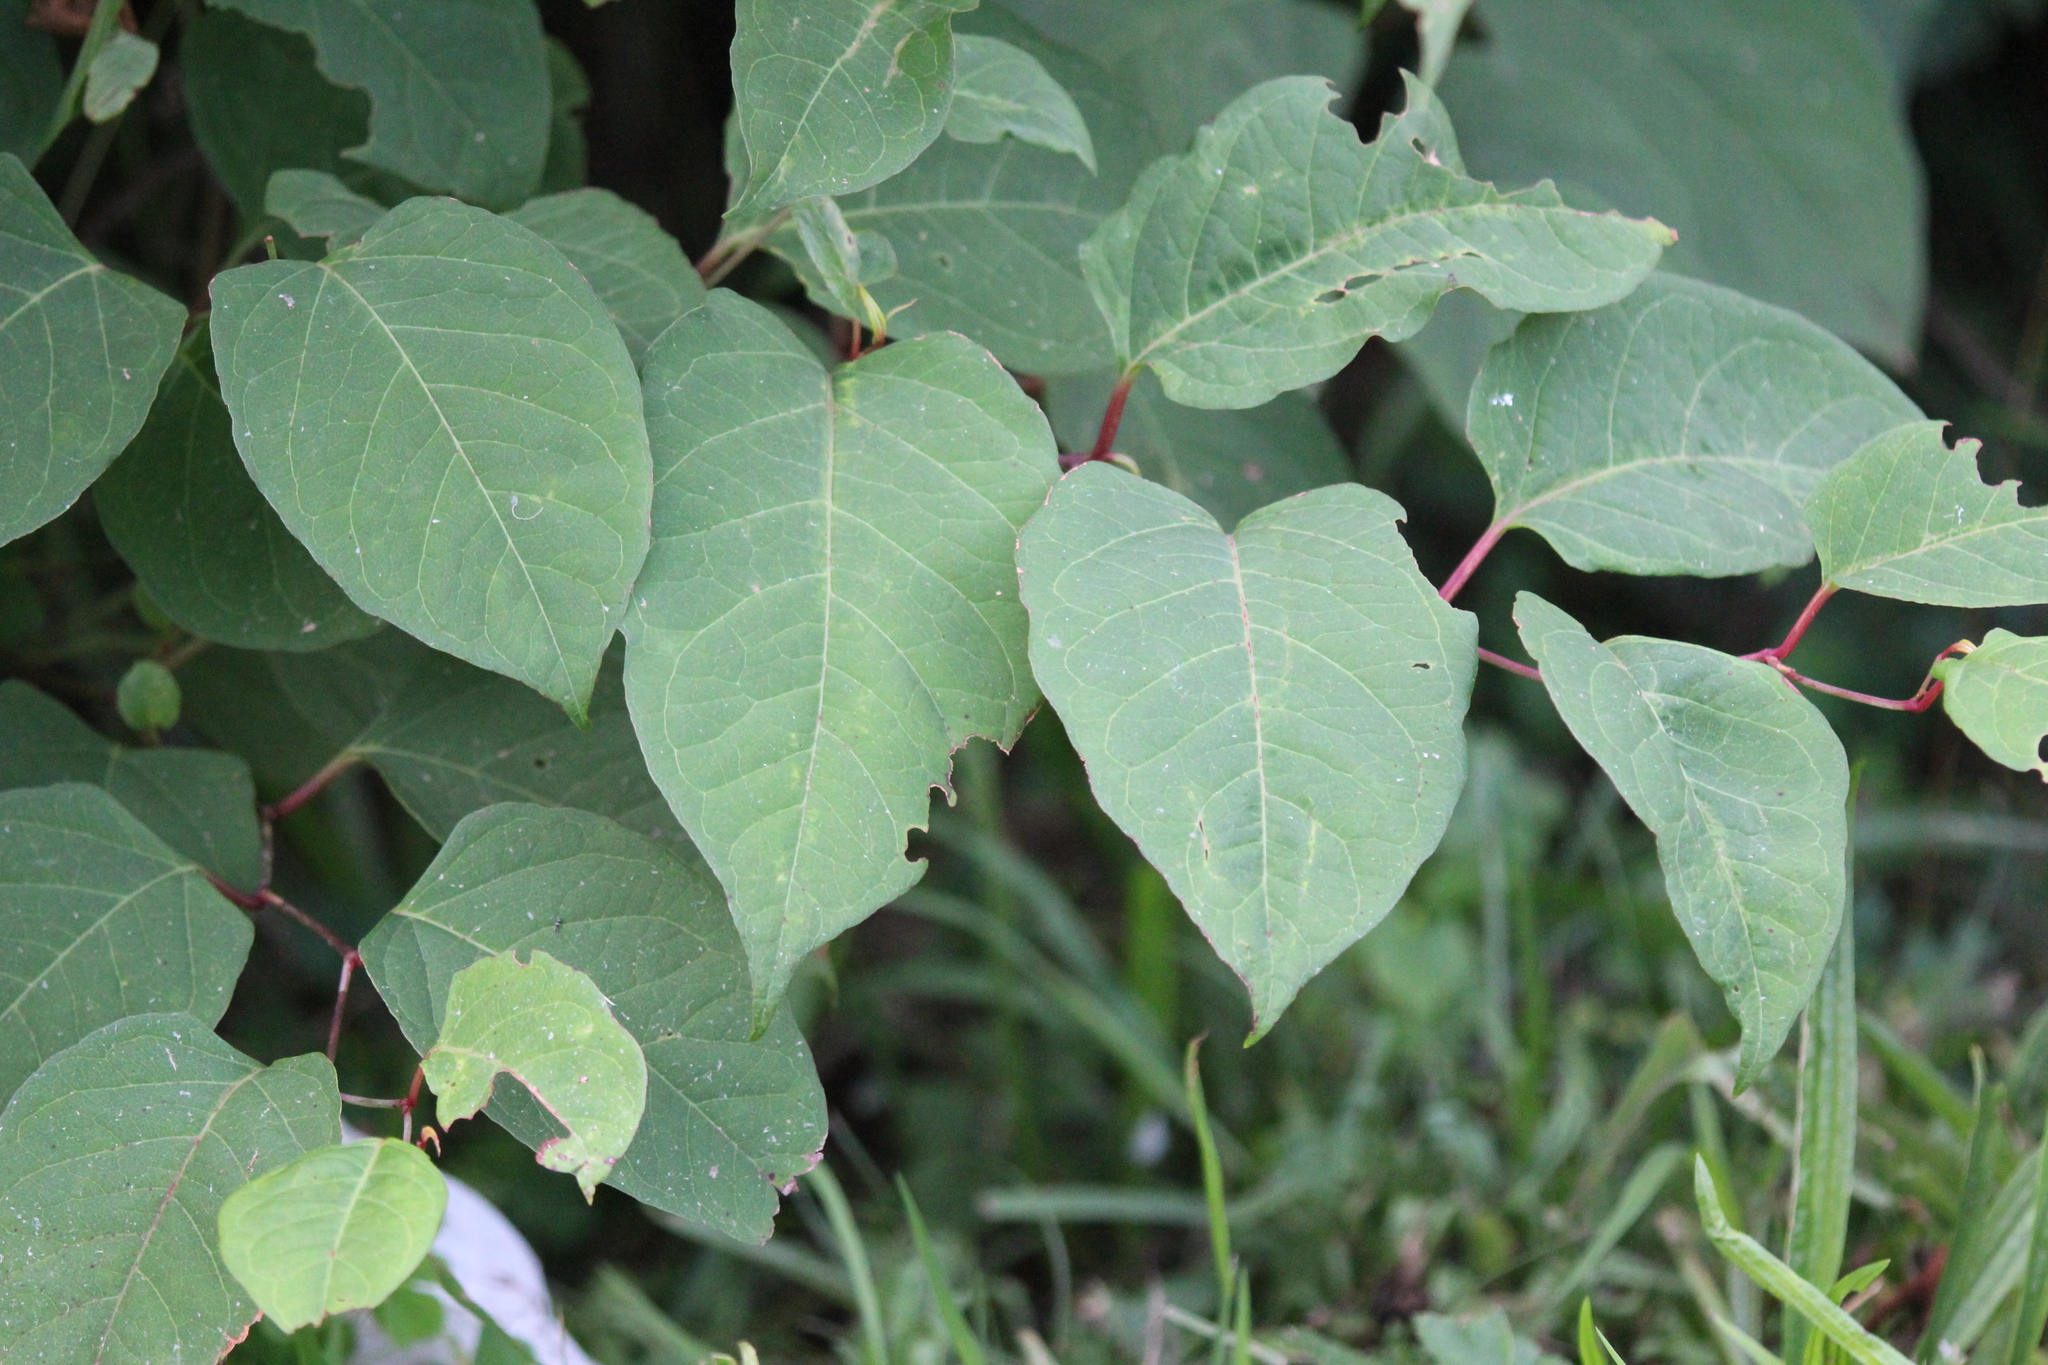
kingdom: Plantae
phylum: Tracheophyta
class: Magnoliopsida
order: Caryophyllales
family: Polygonaceae
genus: Reynoutria
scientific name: Reynoutria japonica
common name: Japanese knotweed
